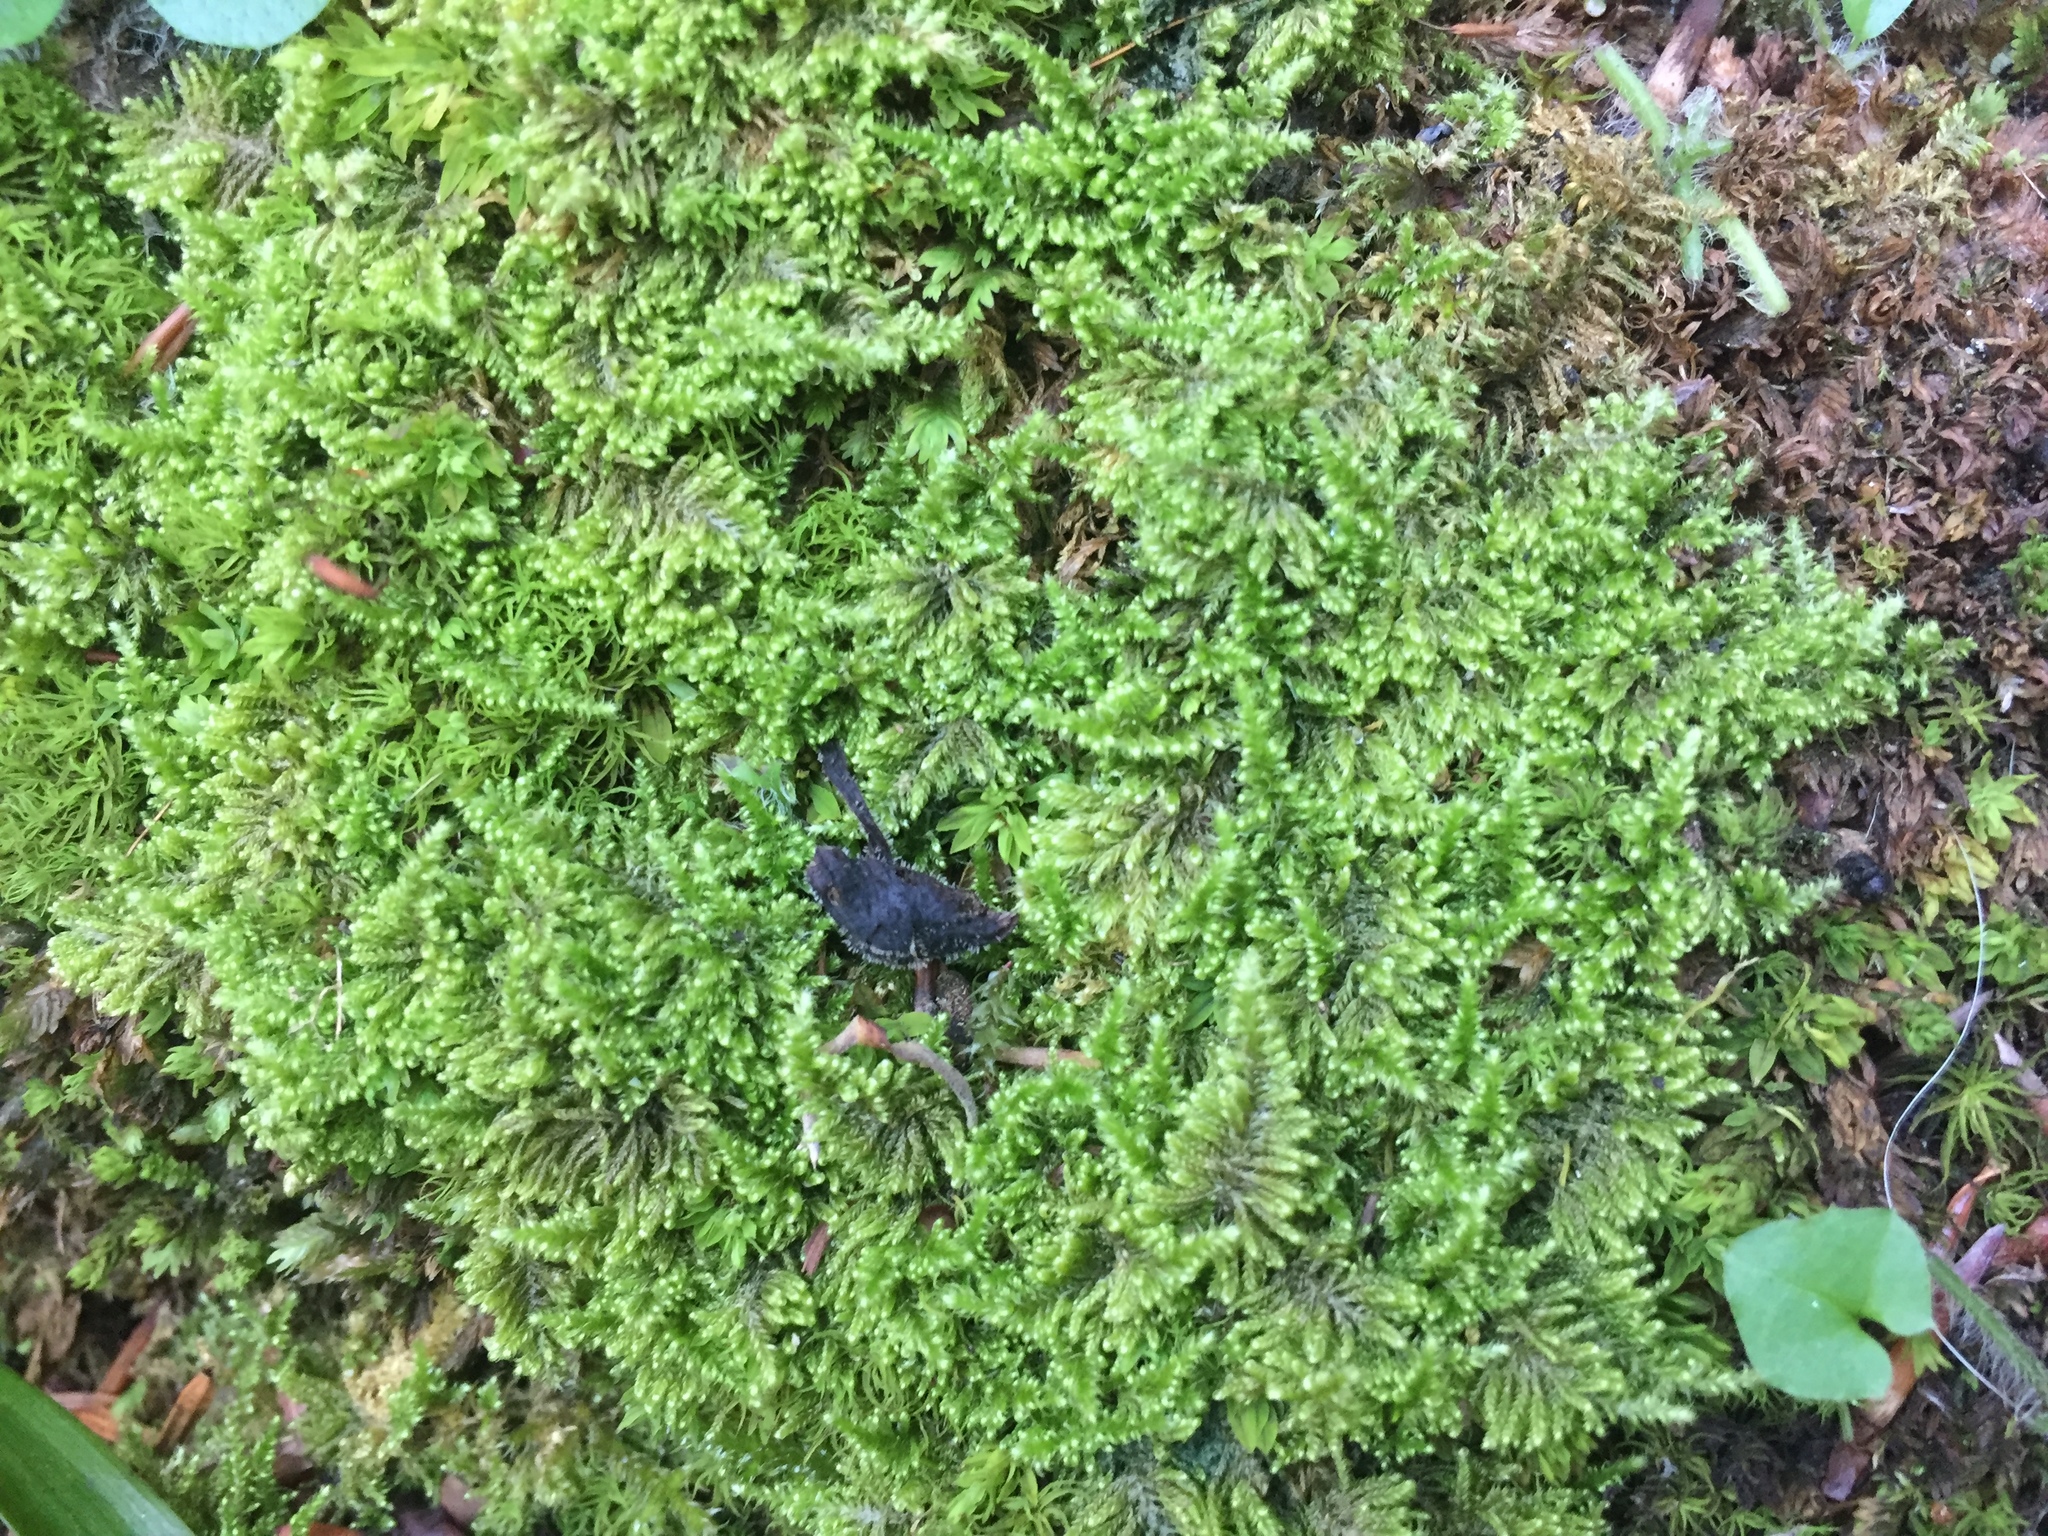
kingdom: Plantae
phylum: Bryophyta
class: Bryopsida
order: Hypnales
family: Myuriaceae
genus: Ctenidium
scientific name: Ctenidium molluscum
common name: Chalk comb-moss
